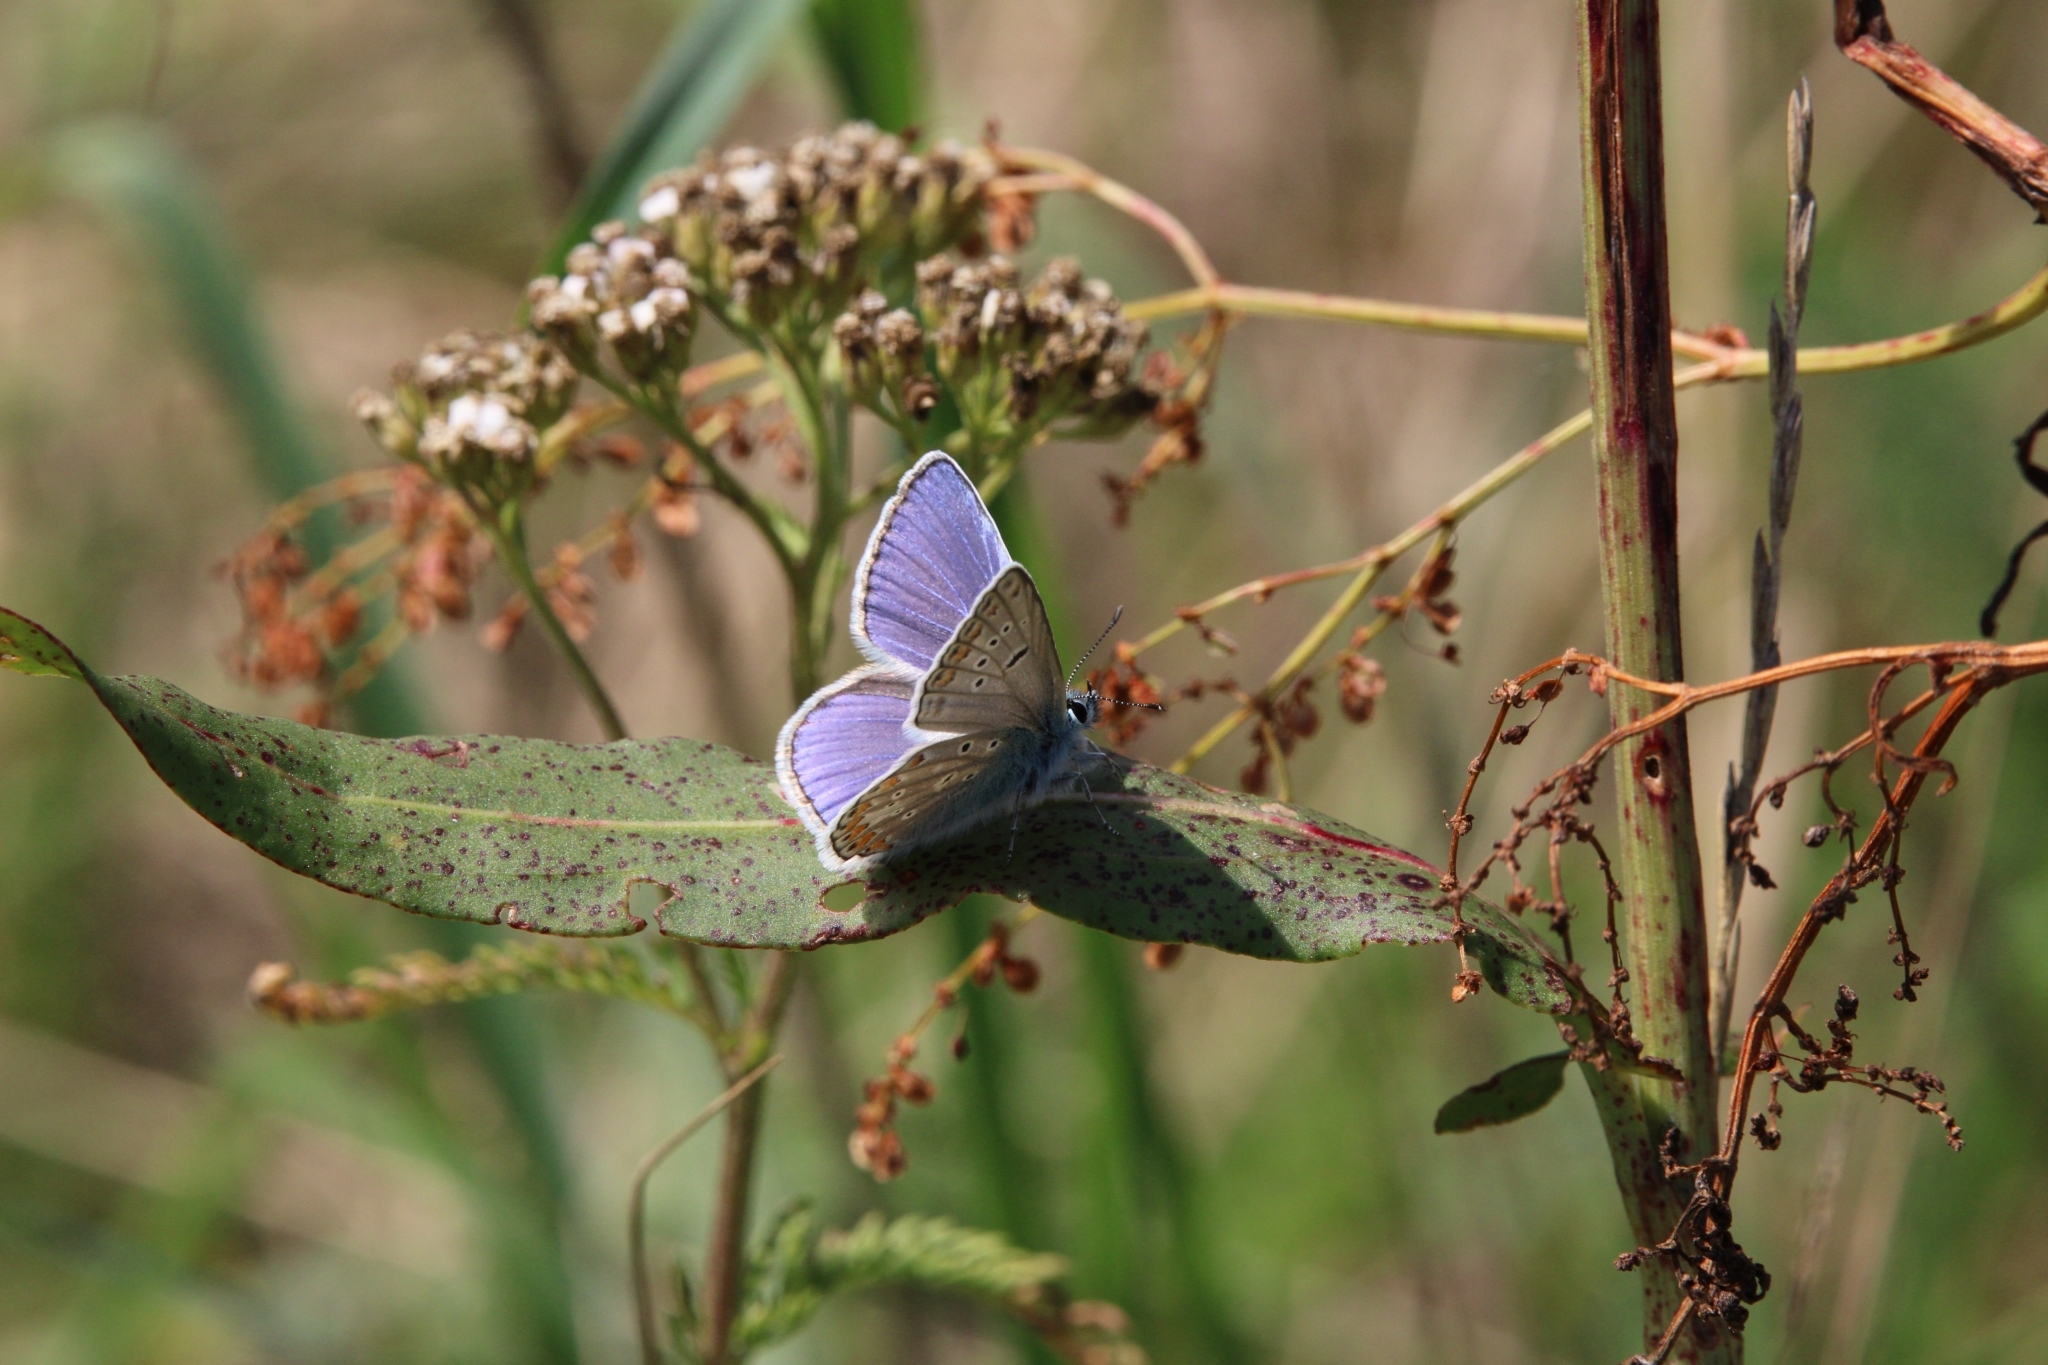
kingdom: Animalia
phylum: Arthropoda
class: Insecta
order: Lepidoptera
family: Lycaenidae
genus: Polyommatus
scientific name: Polyommatus icarus
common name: Common blue
